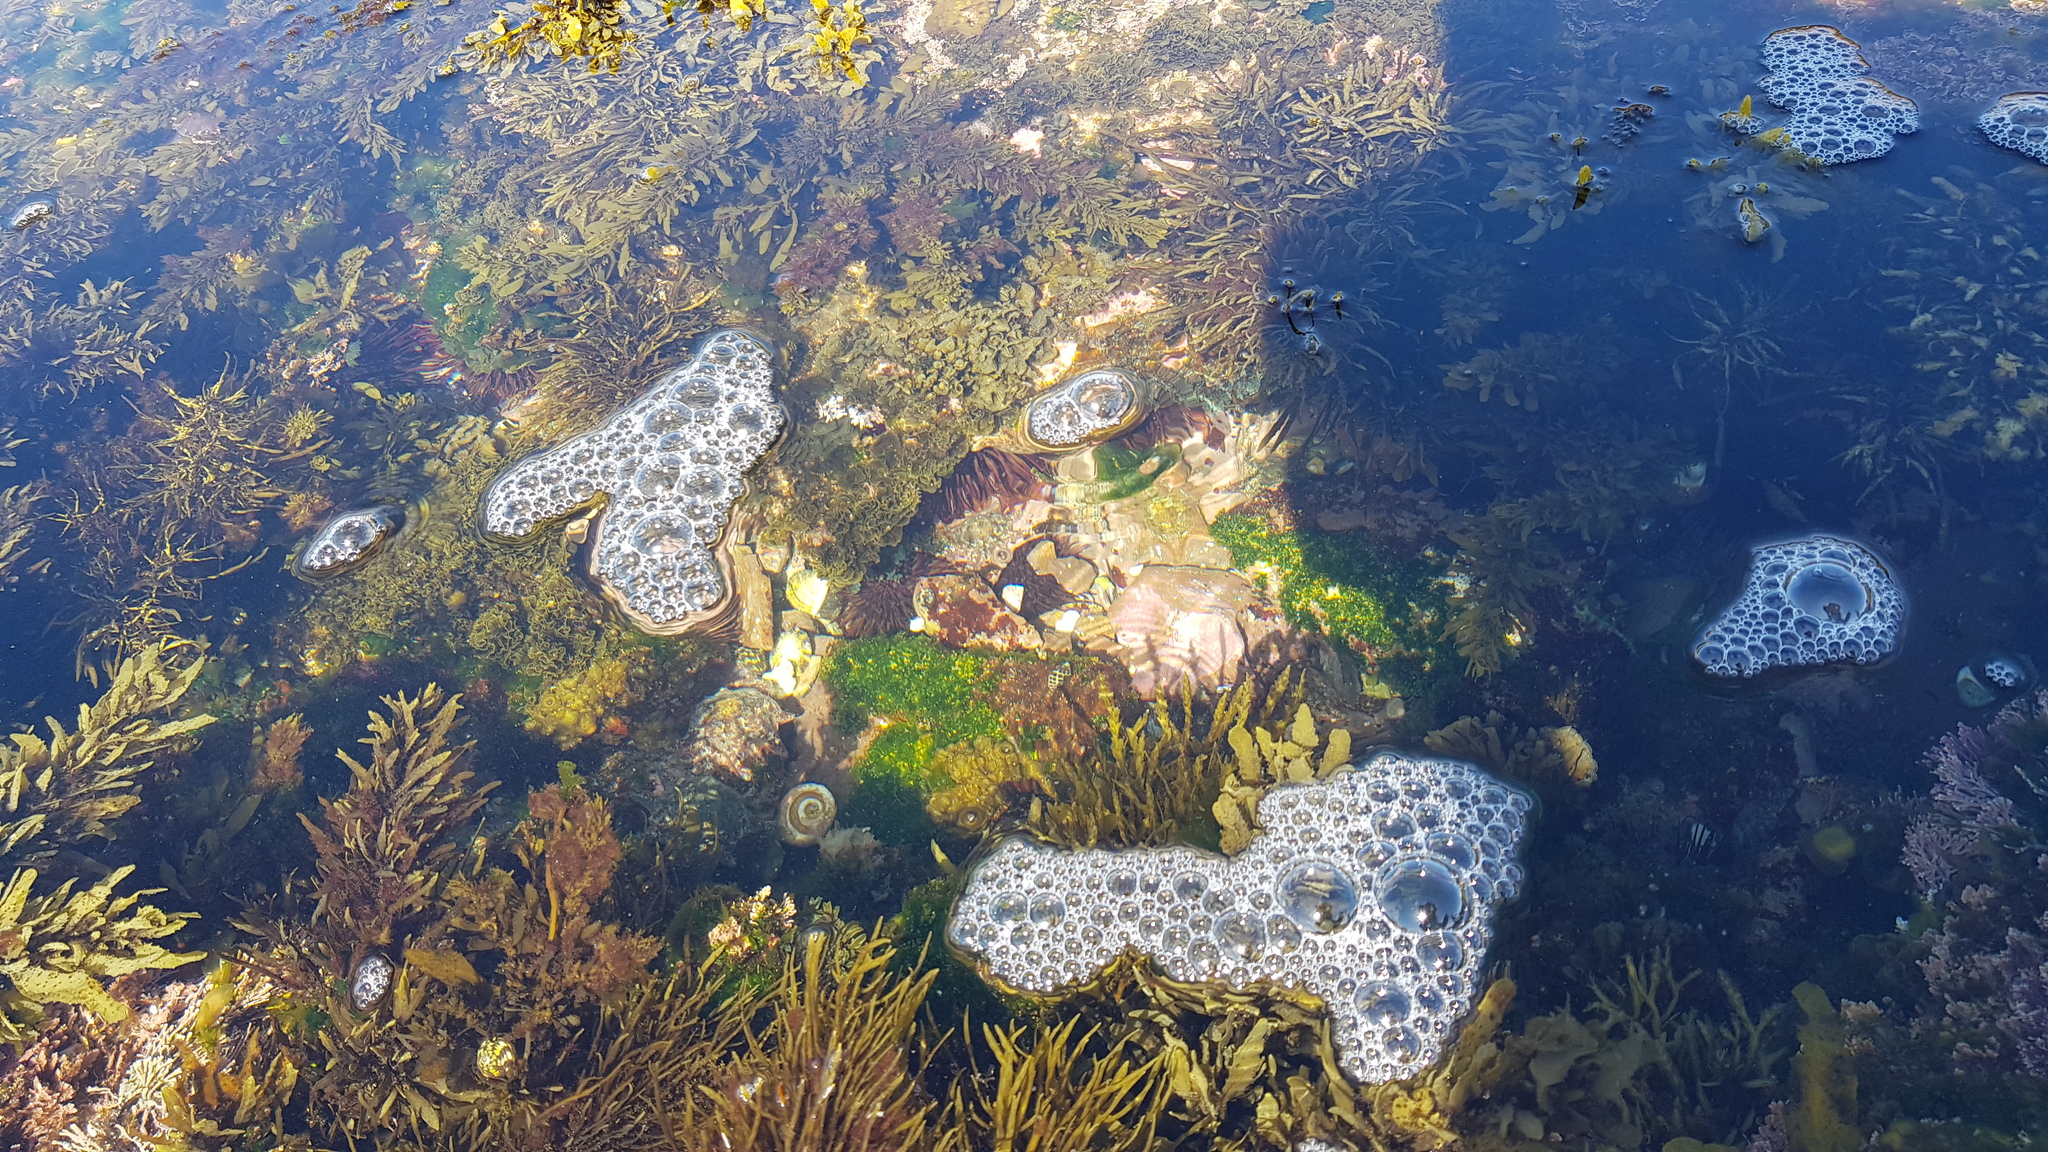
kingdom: Animalia
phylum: Echinodermata
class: Echinoidea
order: Camarodonta
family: Echinometridae
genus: Heliocidaris
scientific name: Heliocidaris erythrogramma
